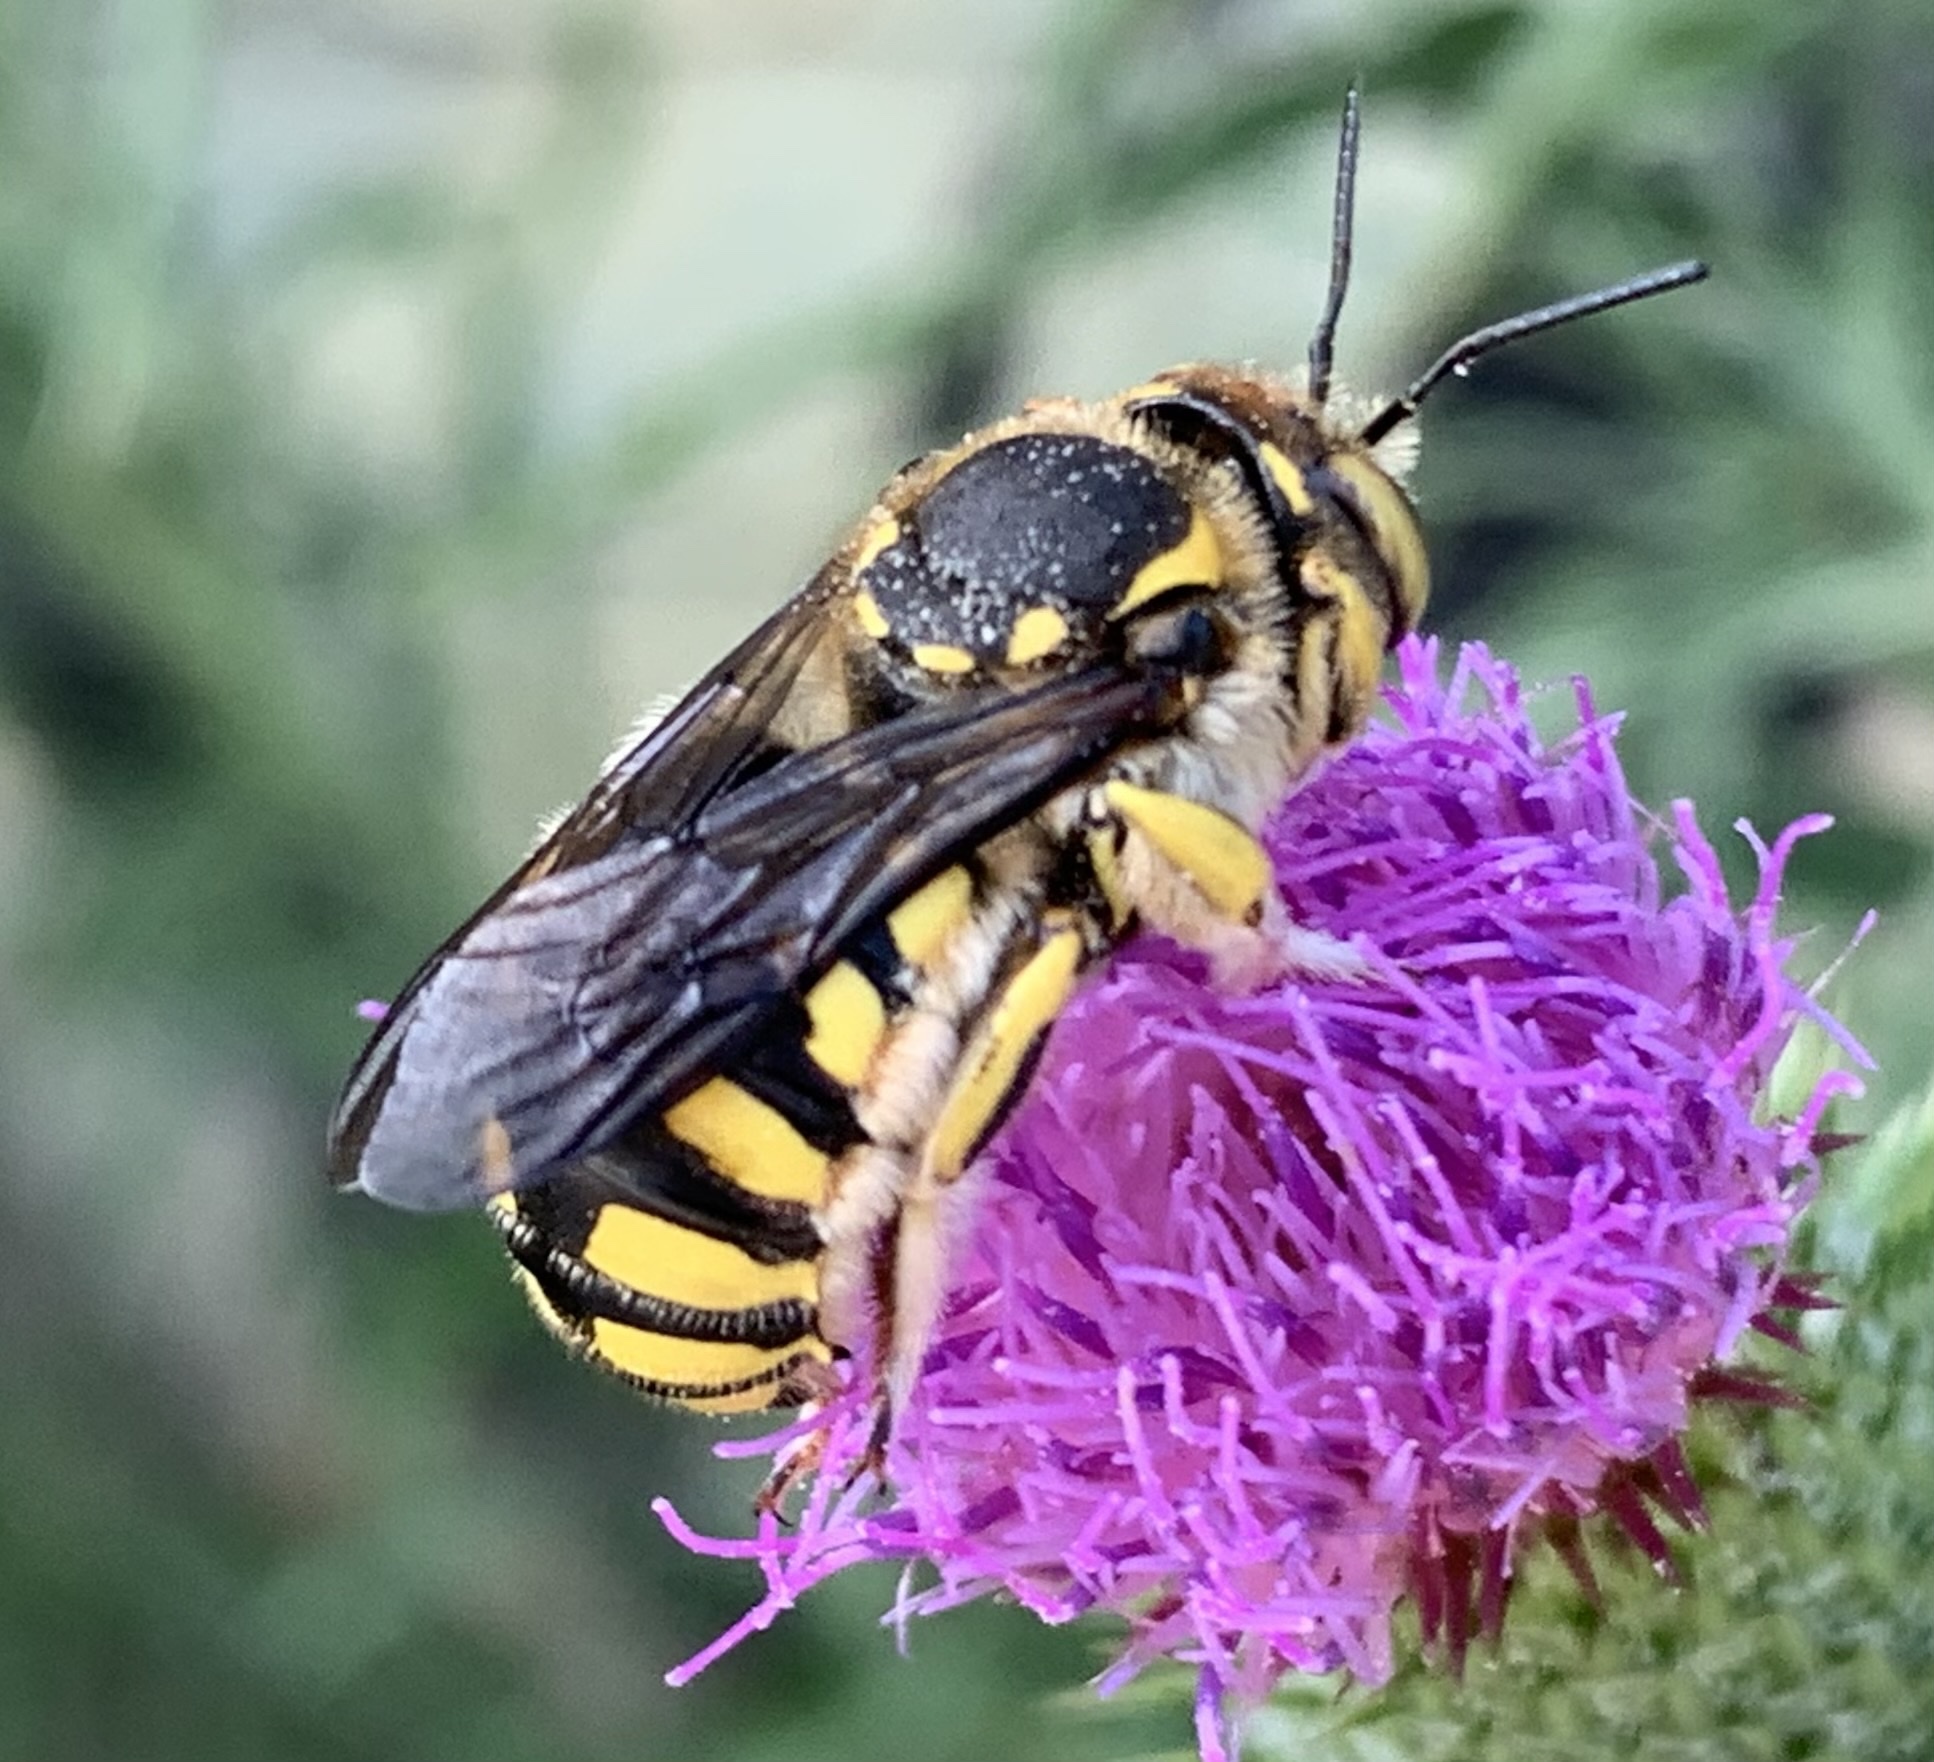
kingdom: Animalia
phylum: Arthropoda
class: Insecta
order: Hymenoptera
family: Megachilidae
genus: Anthidium
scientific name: Anthidium florentinum
